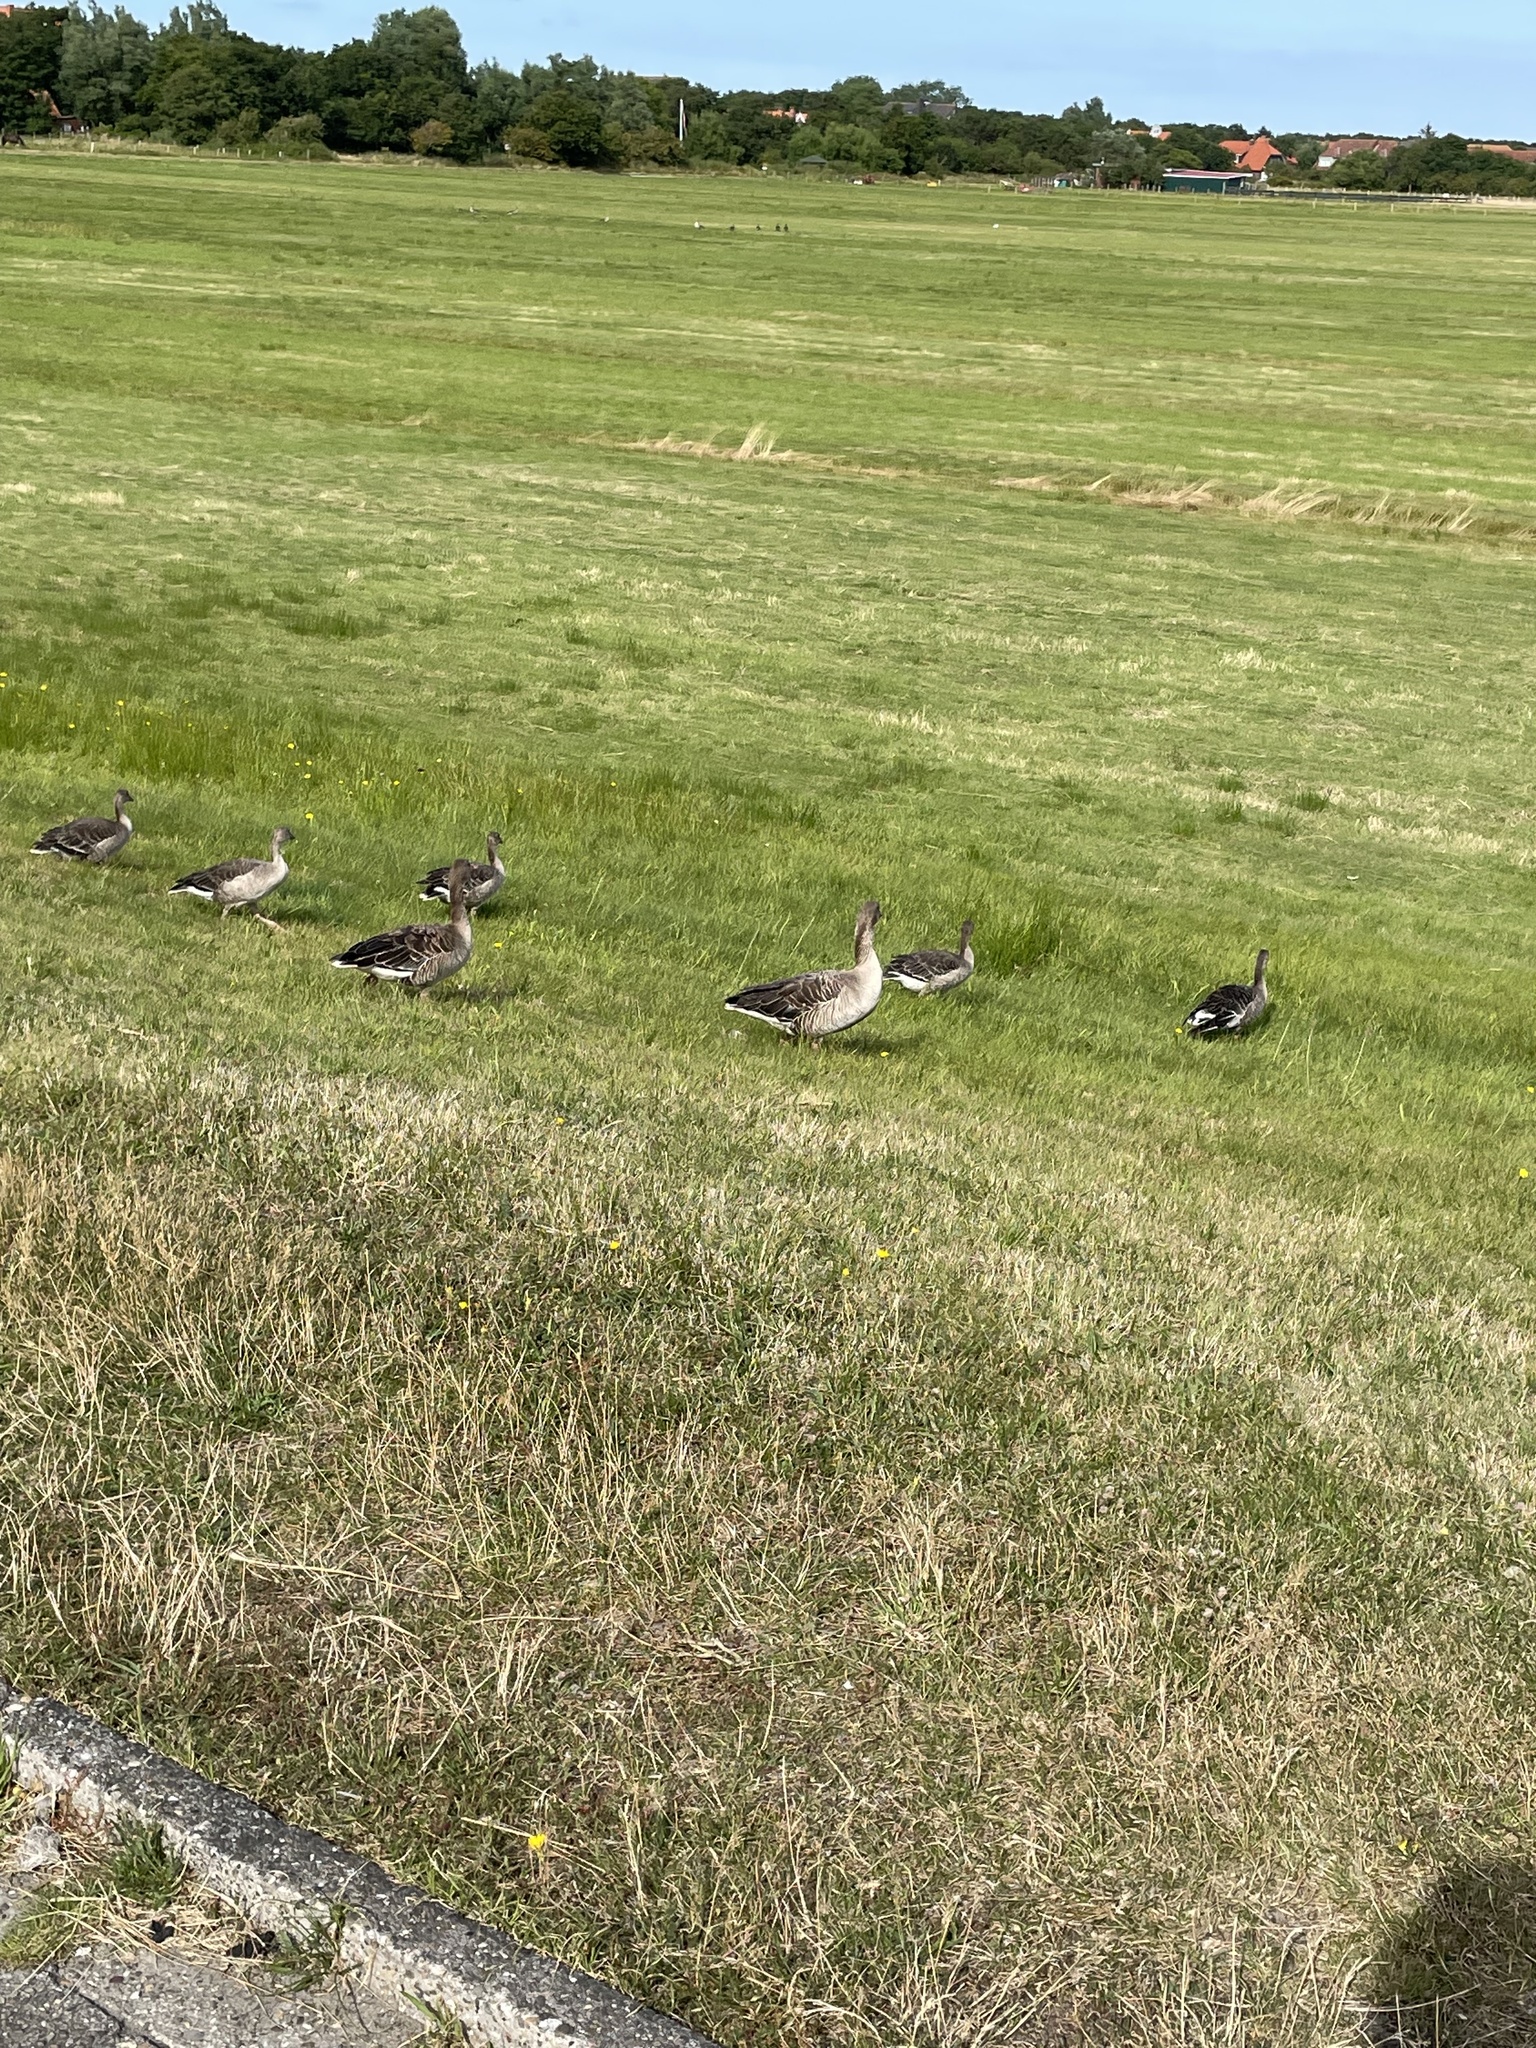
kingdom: Animalia
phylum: Chordata
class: Aves
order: Anseriformes
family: Anatidae
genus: Anser
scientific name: Anser anser
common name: Greylag goose
